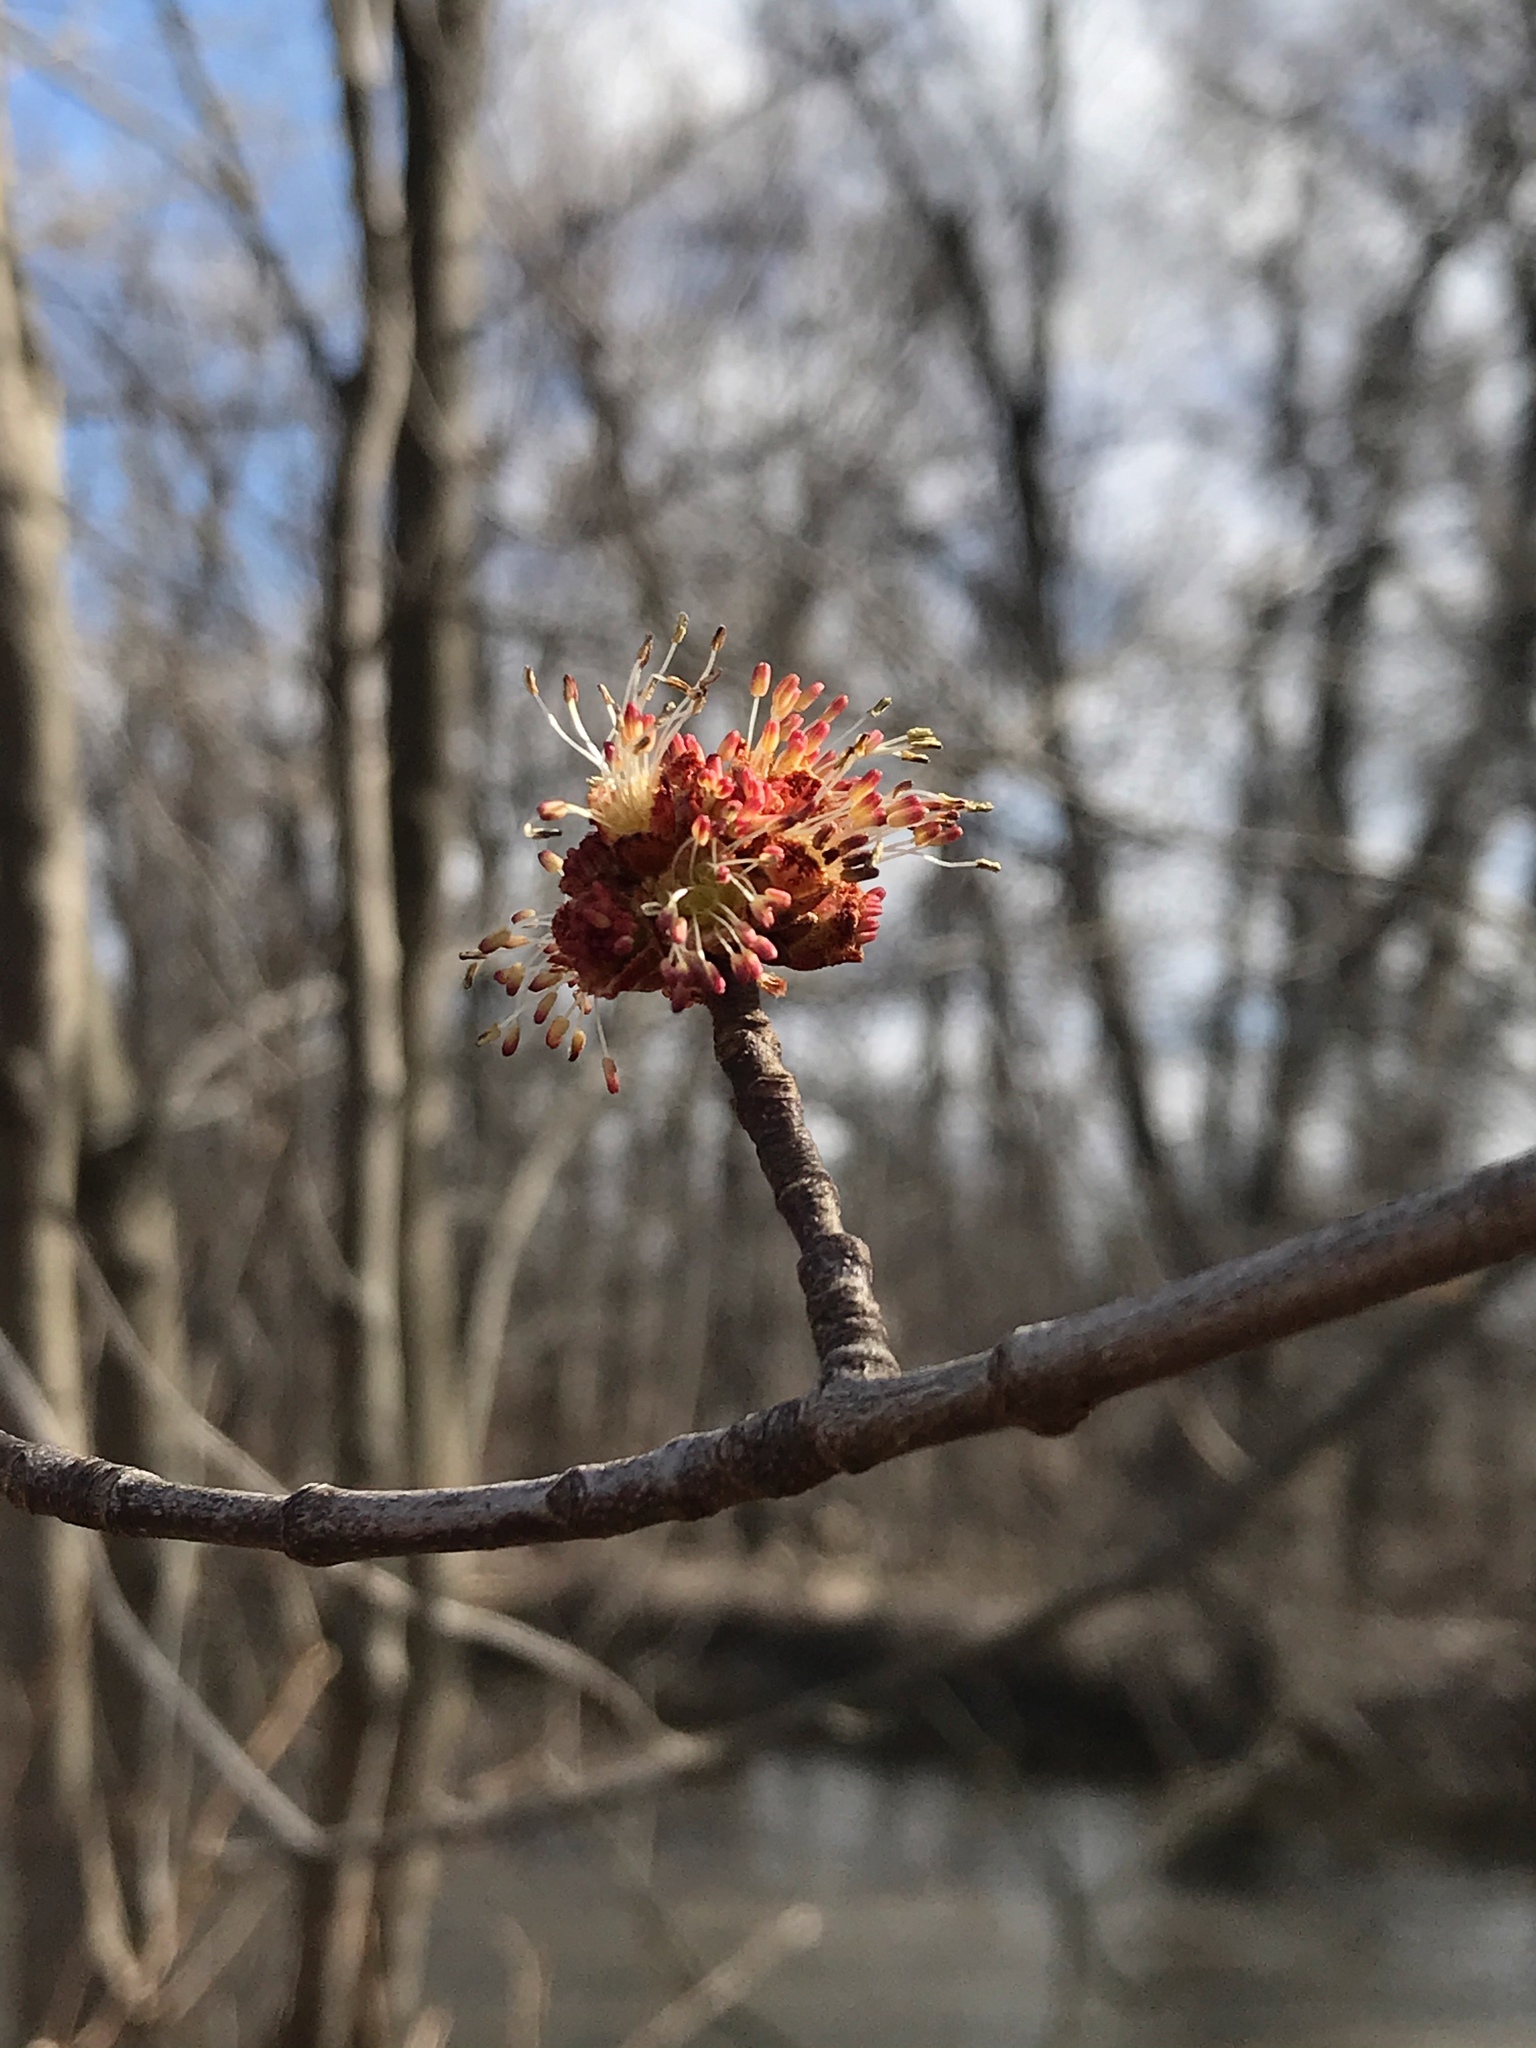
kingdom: Plantae
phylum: Tracheophyta
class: Magnoliopsida
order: Sapindales
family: Sapindaceae
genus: Acer
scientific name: Acer saccharinum
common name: Silver maple
